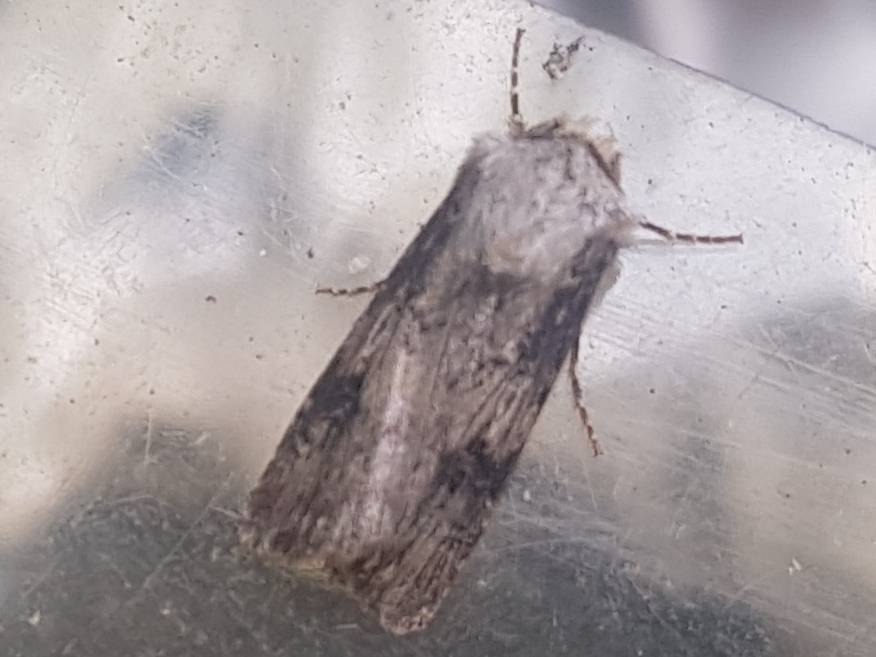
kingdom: Animalia
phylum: Arthropoda
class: Insecta
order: Lepidoptera
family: Noctuidae
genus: Agrotis
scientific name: Agrotis puta
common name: Shuttle-shaped dart
